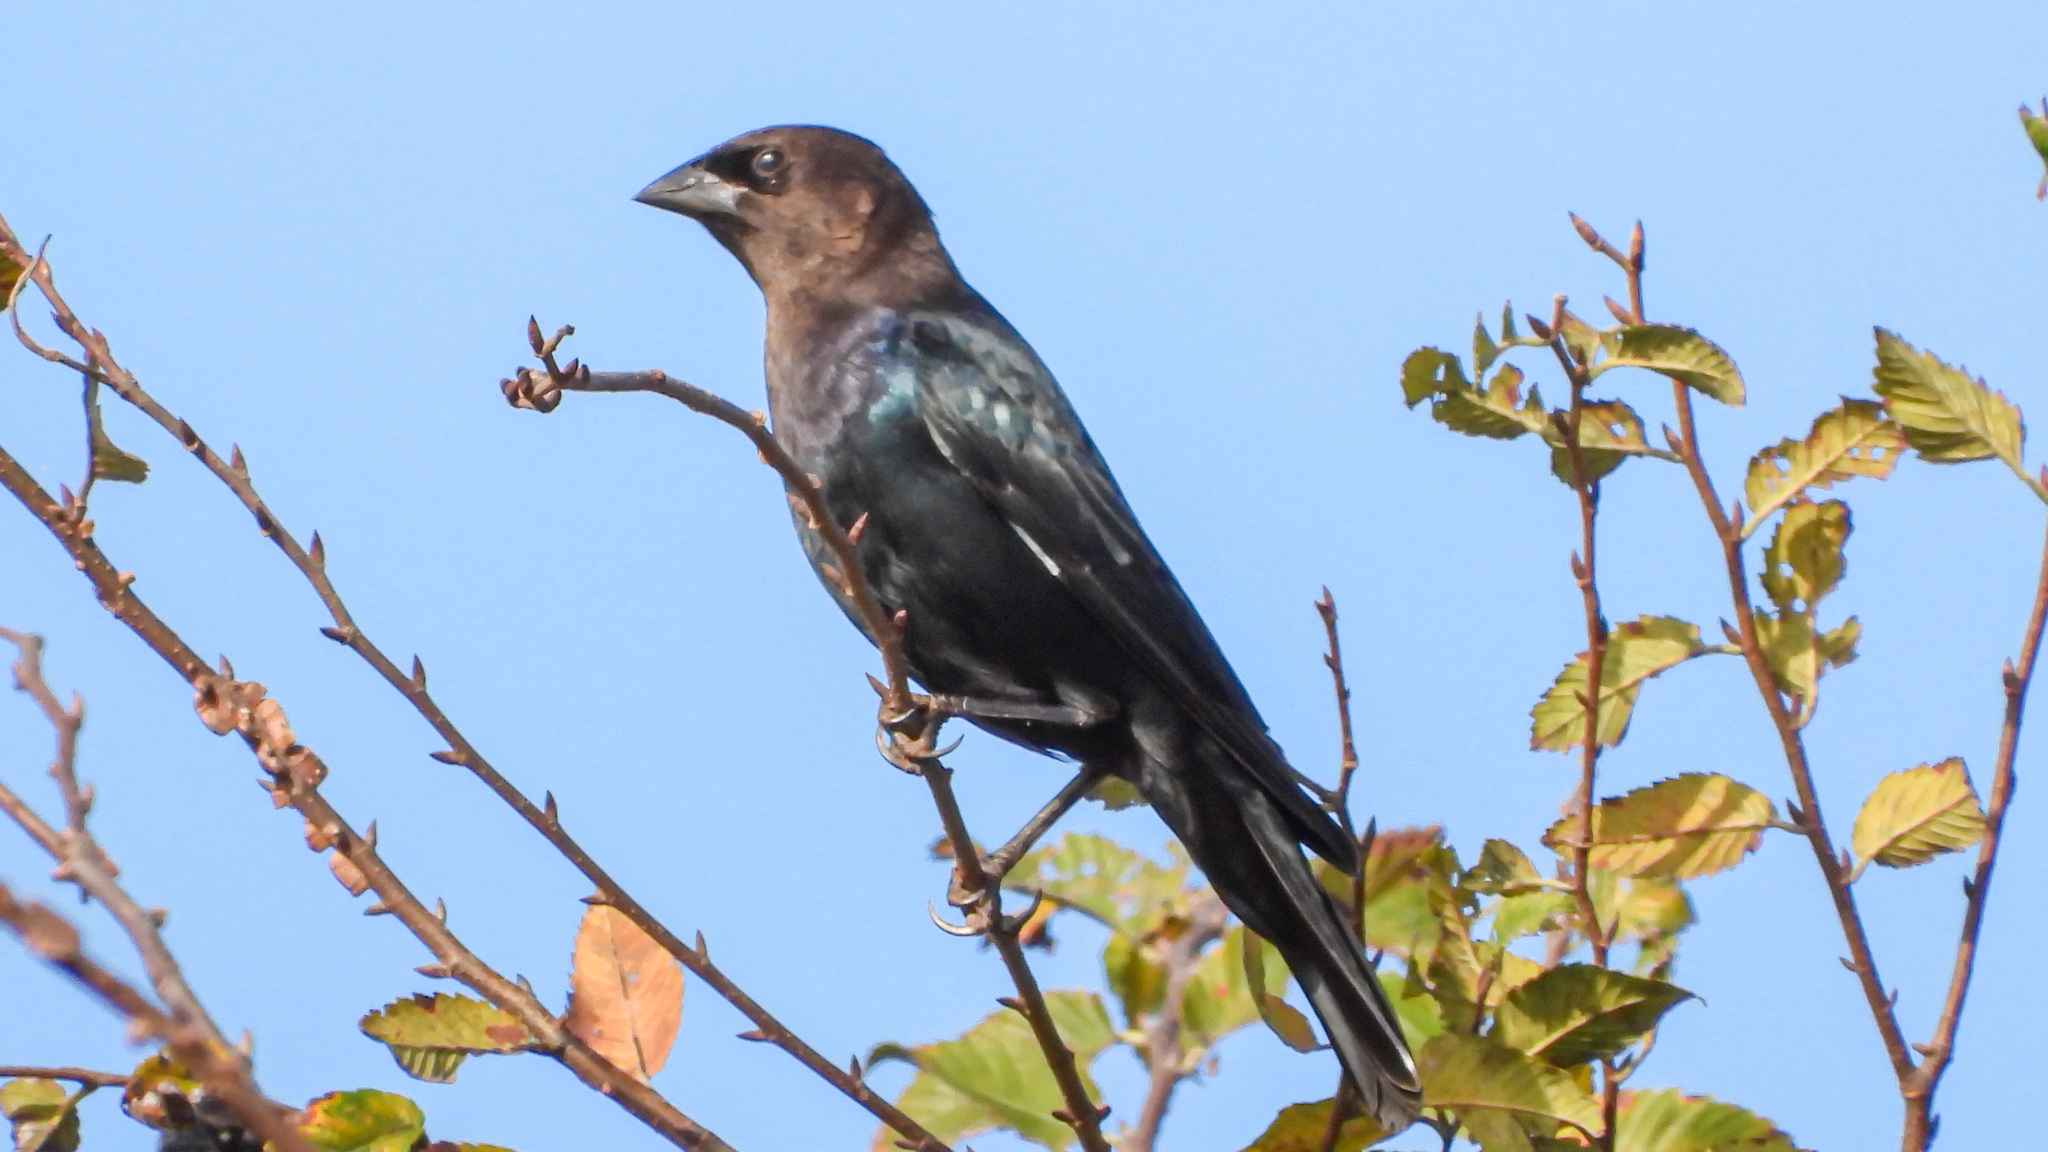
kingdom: Animalia
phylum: Chordata
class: Aves
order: Passeriformes
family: Icteridae
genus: Molothrus
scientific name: Molothrus ater
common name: Brown-headed cowbird
